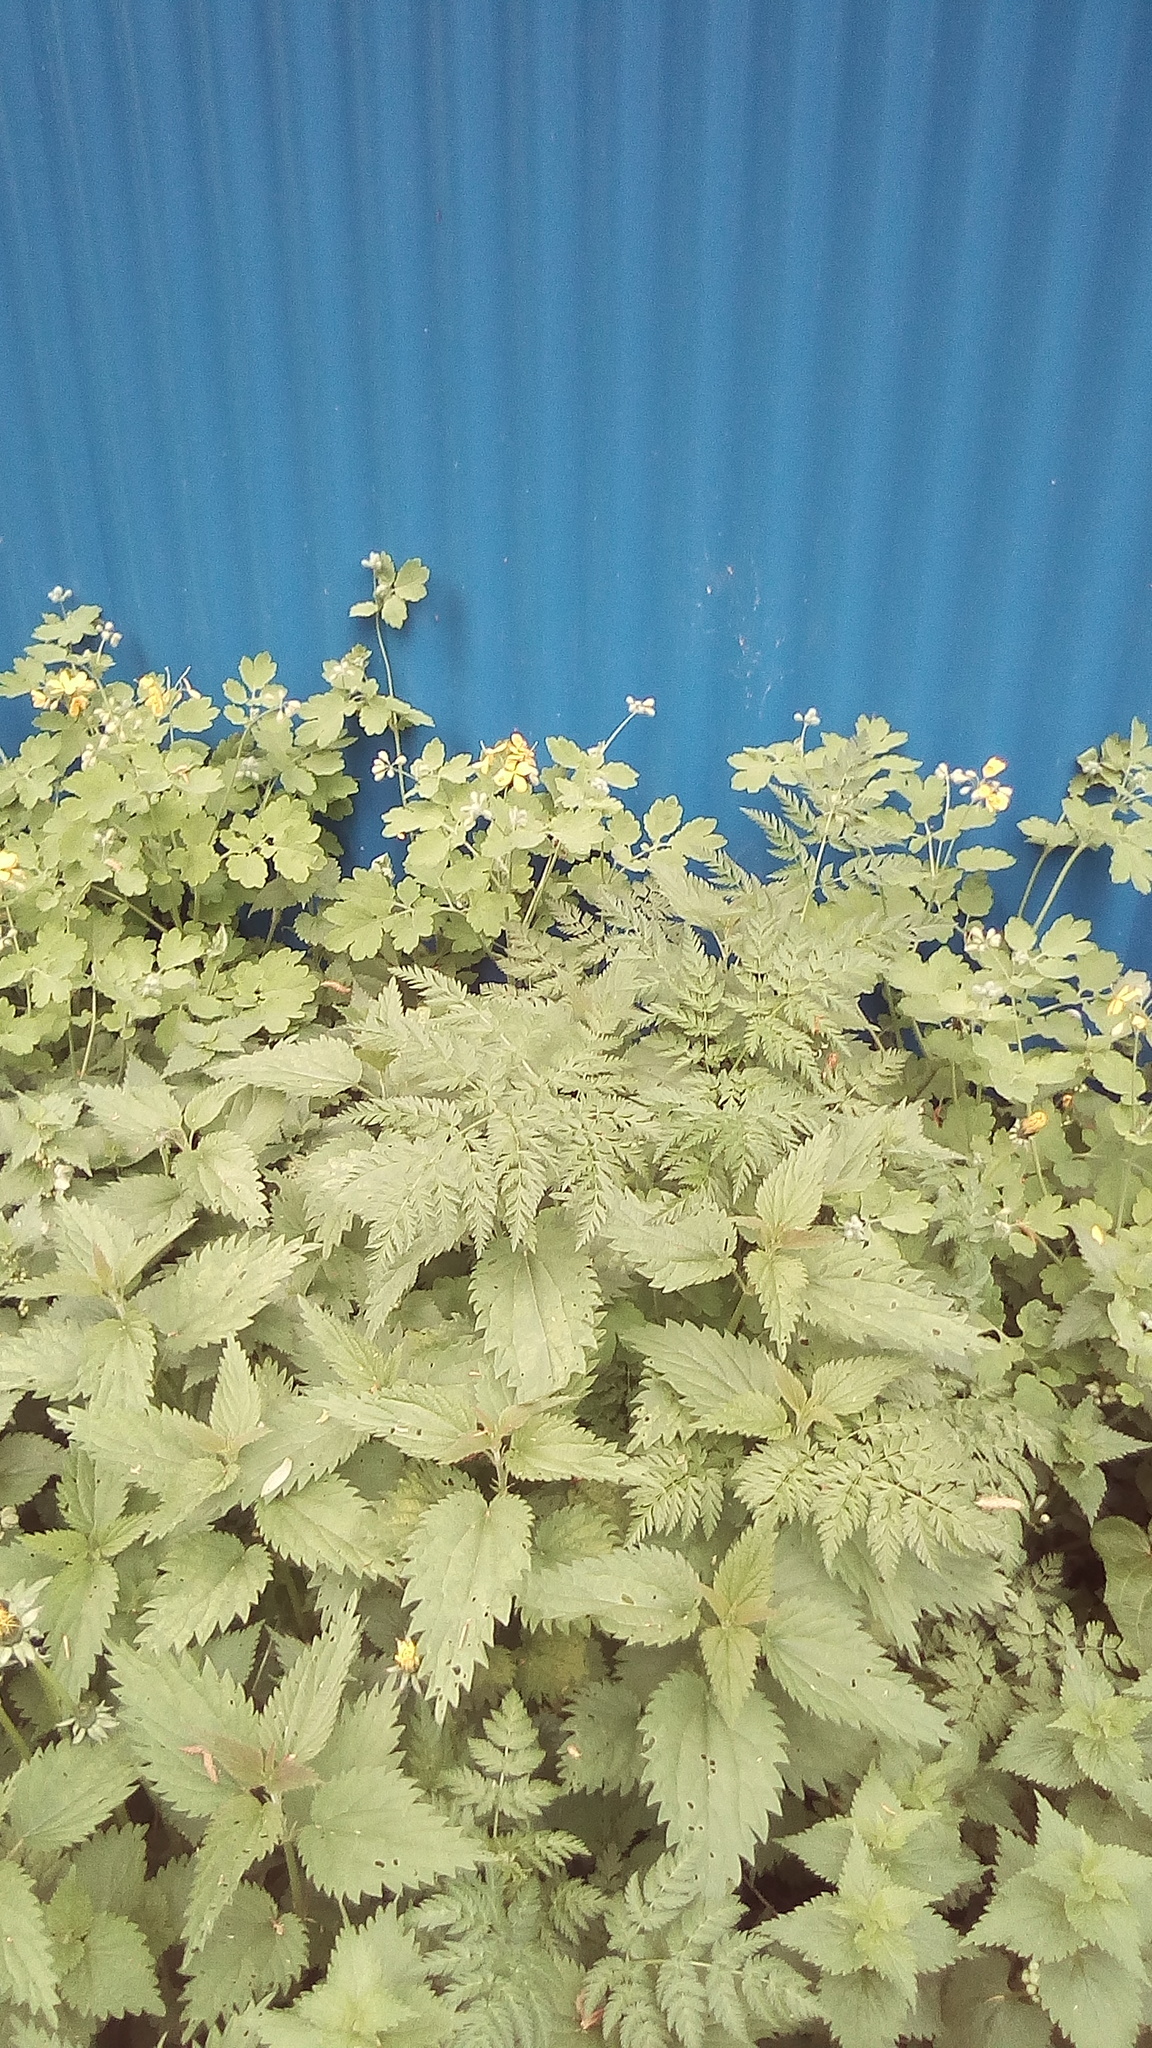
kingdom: Plantae
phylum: Tracheophyta
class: Magnoliopsida
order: Rosales
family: Urticaceae
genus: Urtica
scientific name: Urtica dioica
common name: Common nettle
